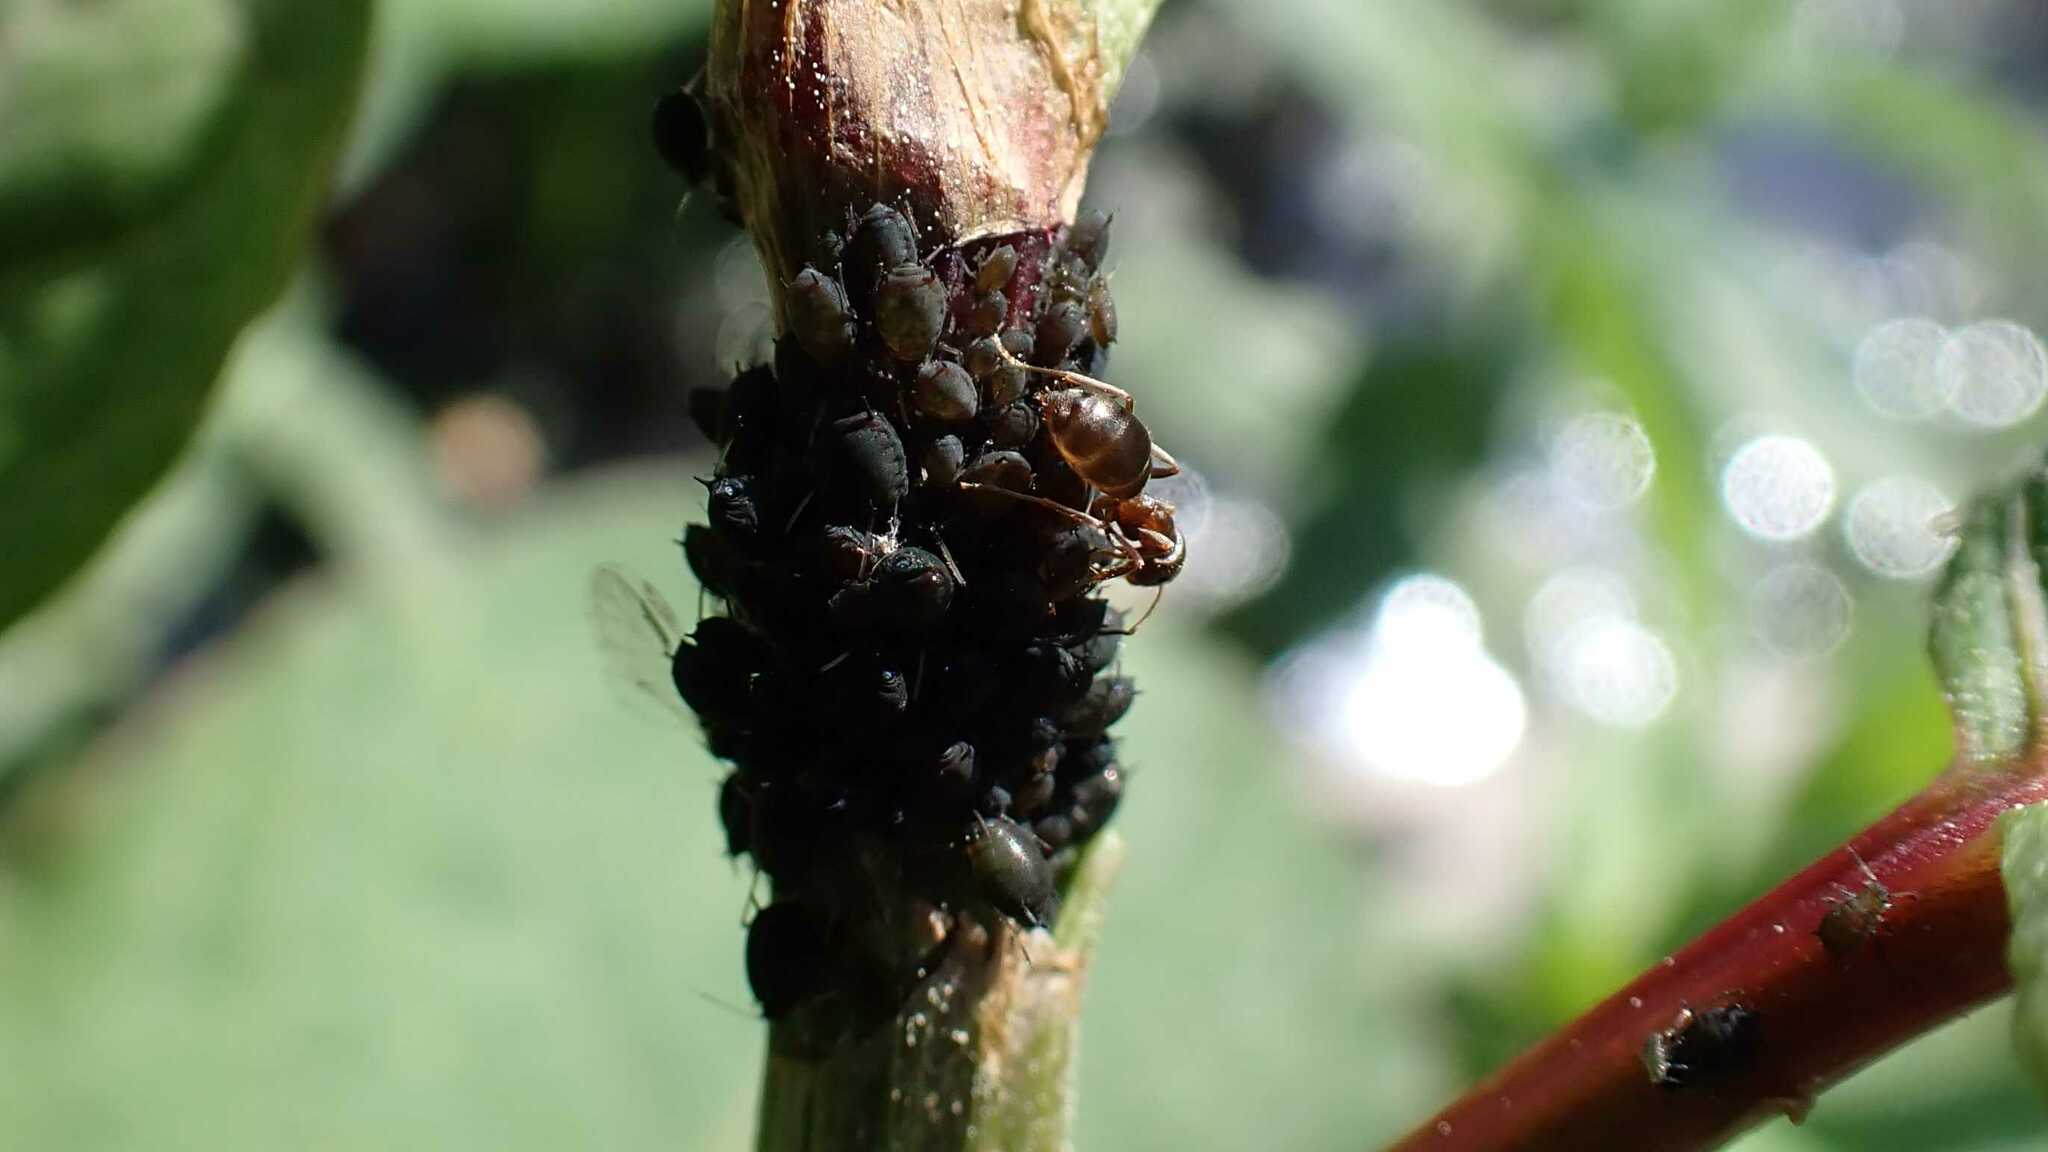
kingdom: Animalia
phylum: Arthropoda
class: Insecta
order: Hymenoptera
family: Formicidae
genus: Lasius
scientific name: Lasius
